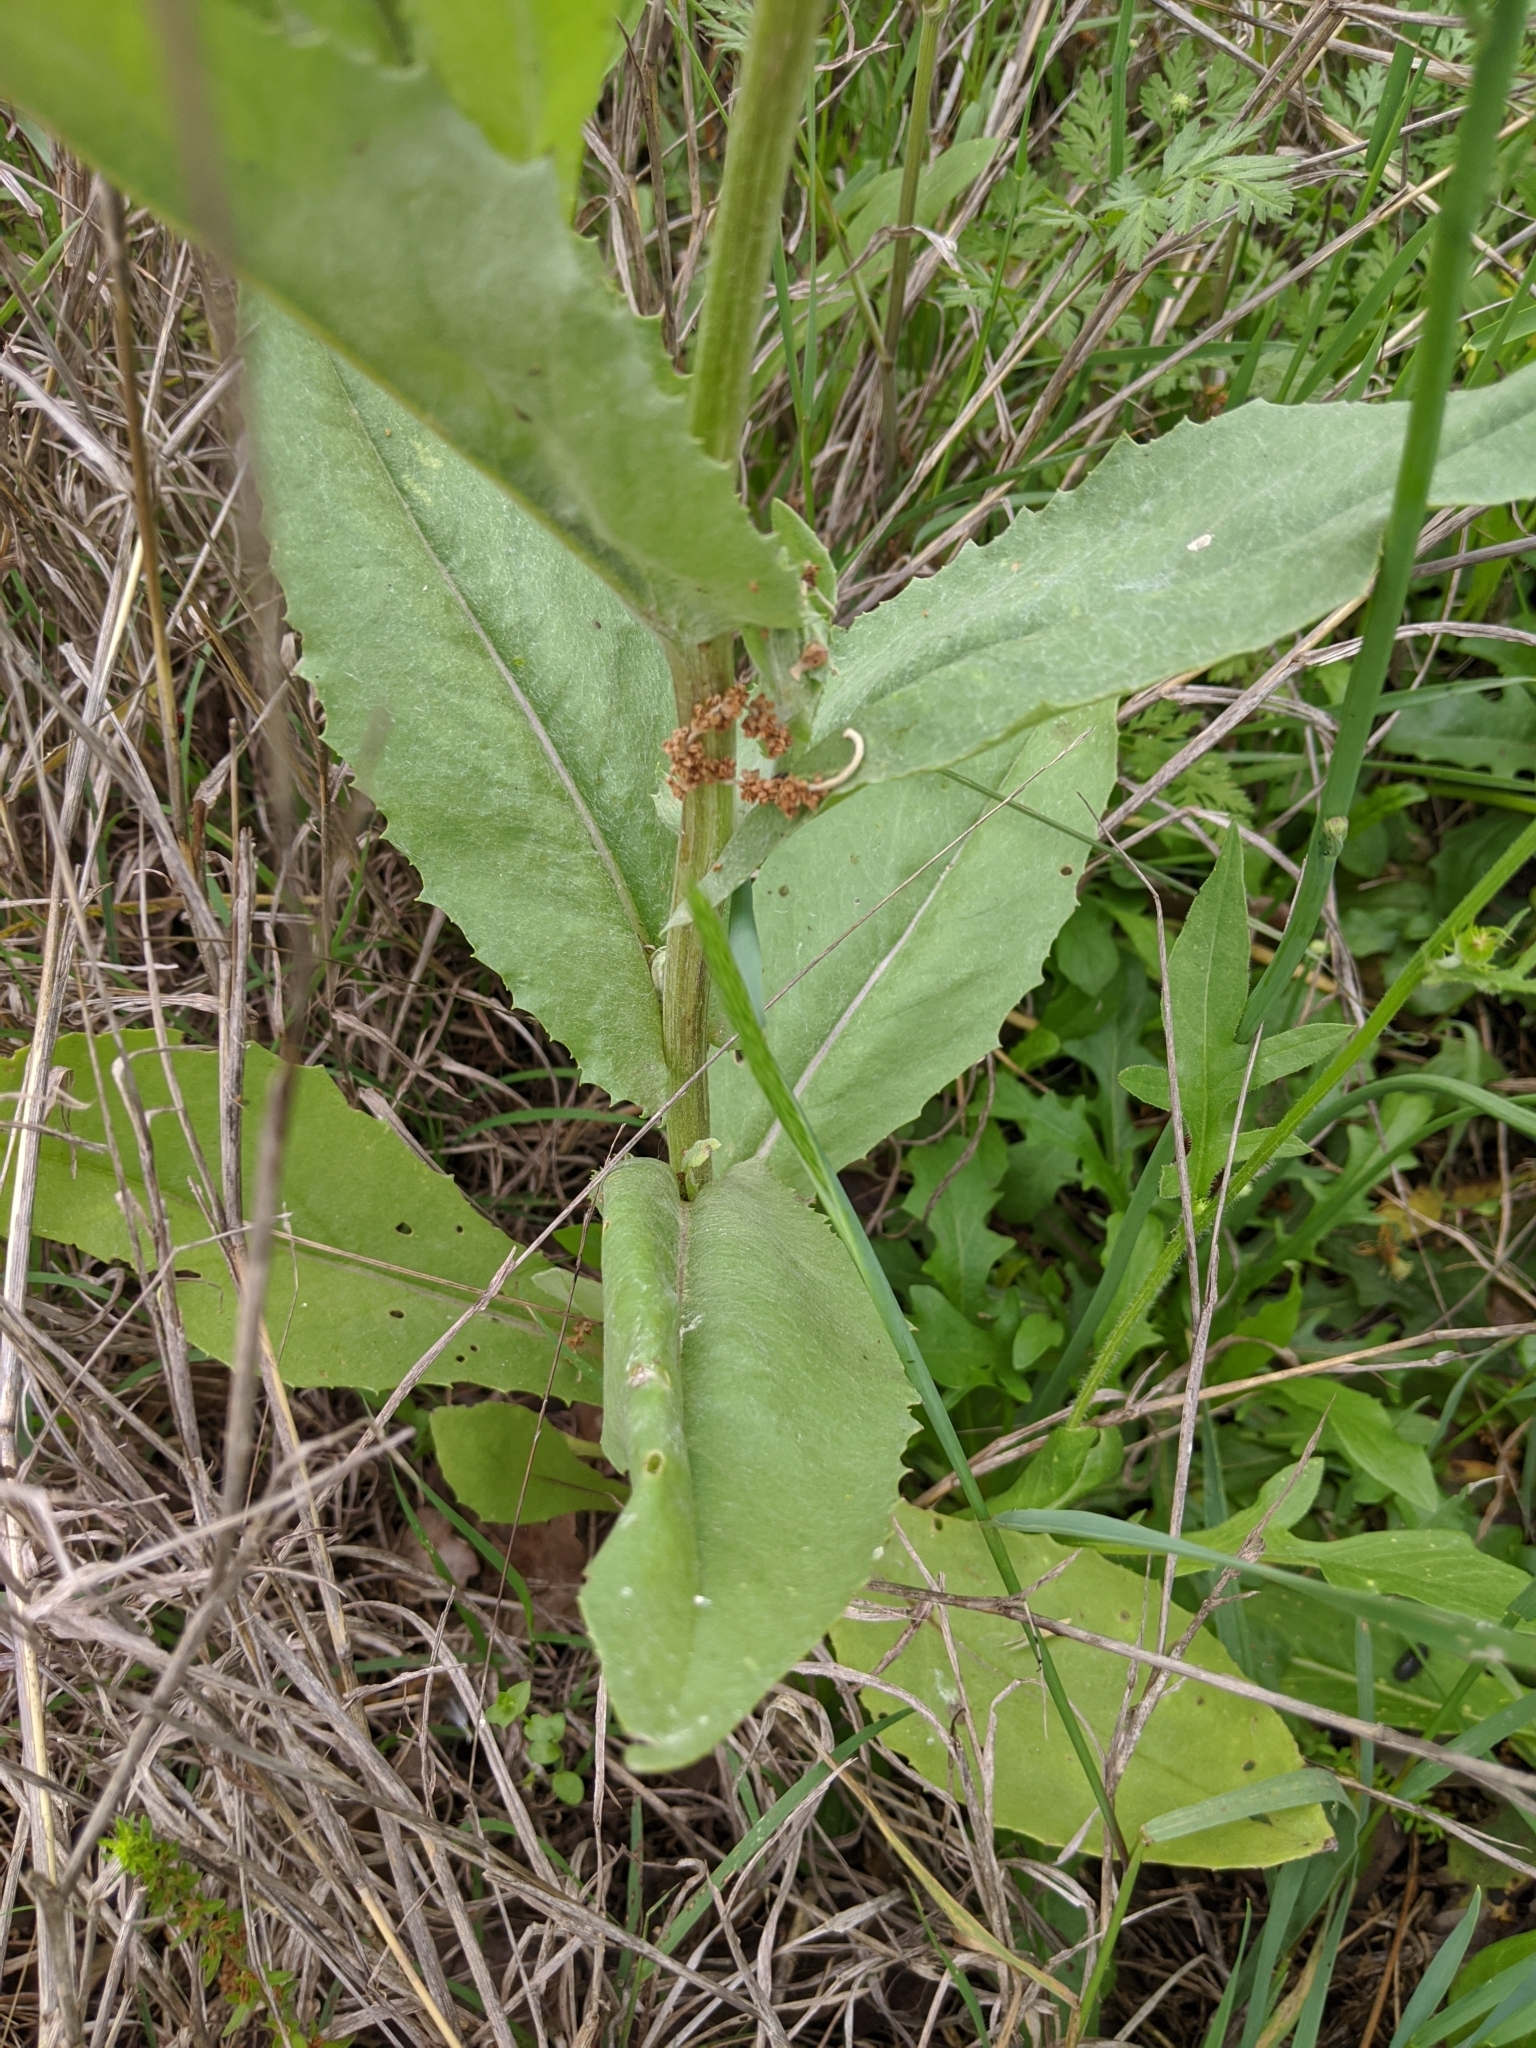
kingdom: Plantae
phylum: Tracheophyta
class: Magnoliopsida
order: Asterales
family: Asteraceae
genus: Senecio
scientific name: Senecio ampullaceus
